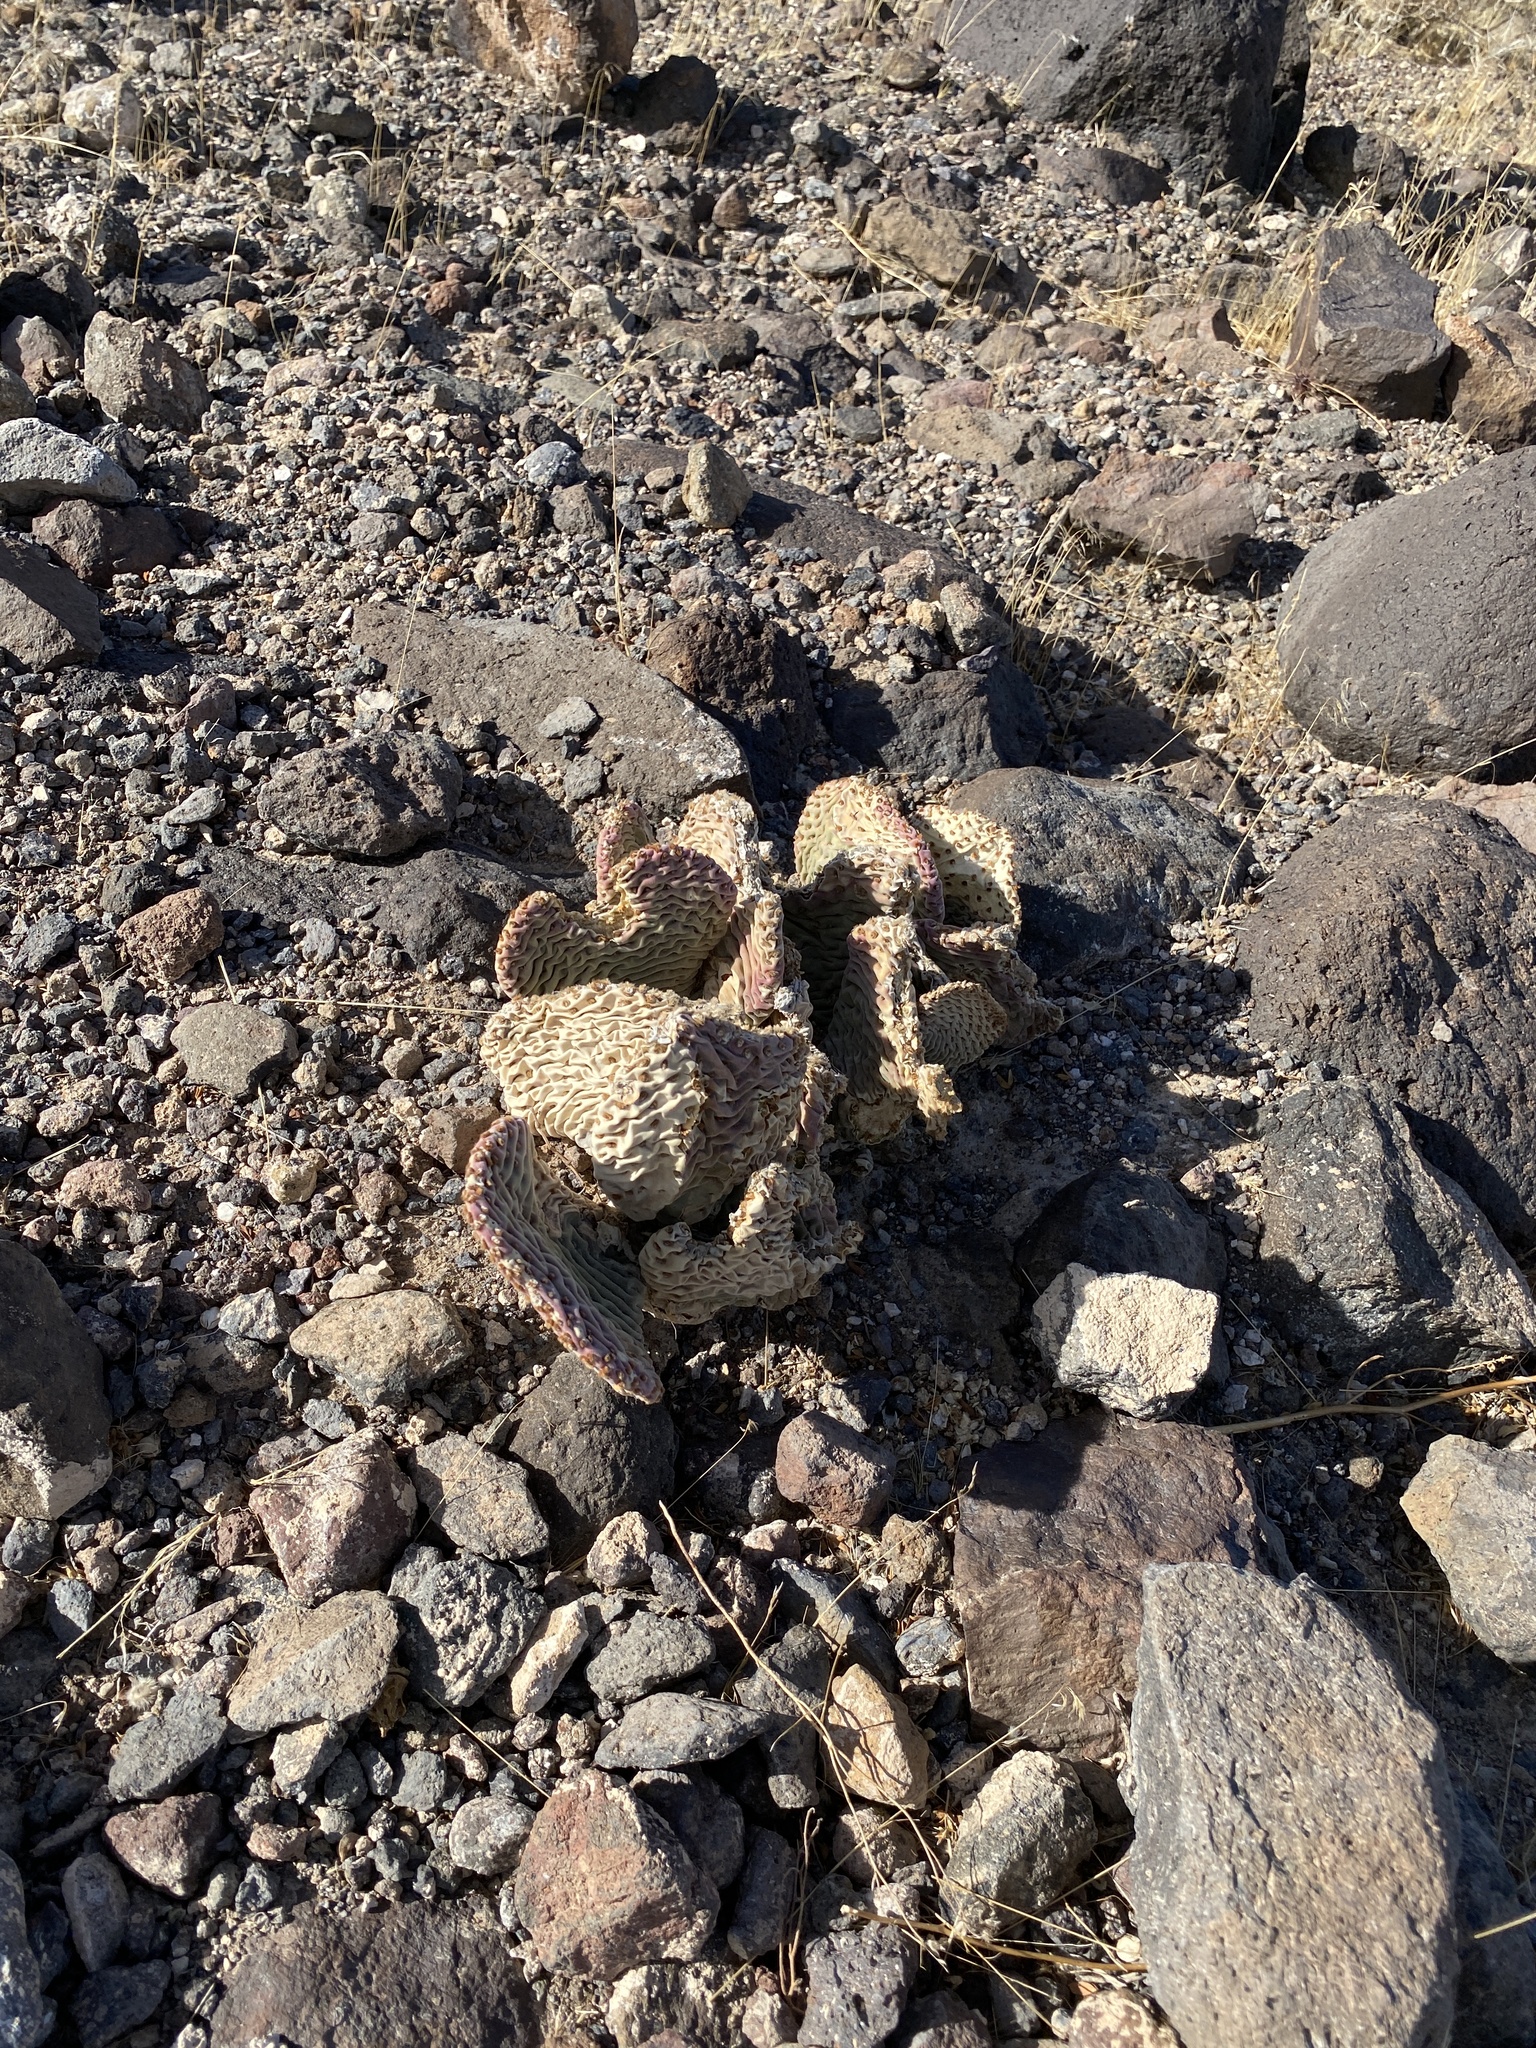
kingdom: Plantae
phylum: Tracheophyta
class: Magnoliopsida
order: Caryophyllales
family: Cactaceae
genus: Opuntia
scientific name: Opuntia basilaris
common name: Beavertail prickly-pear
